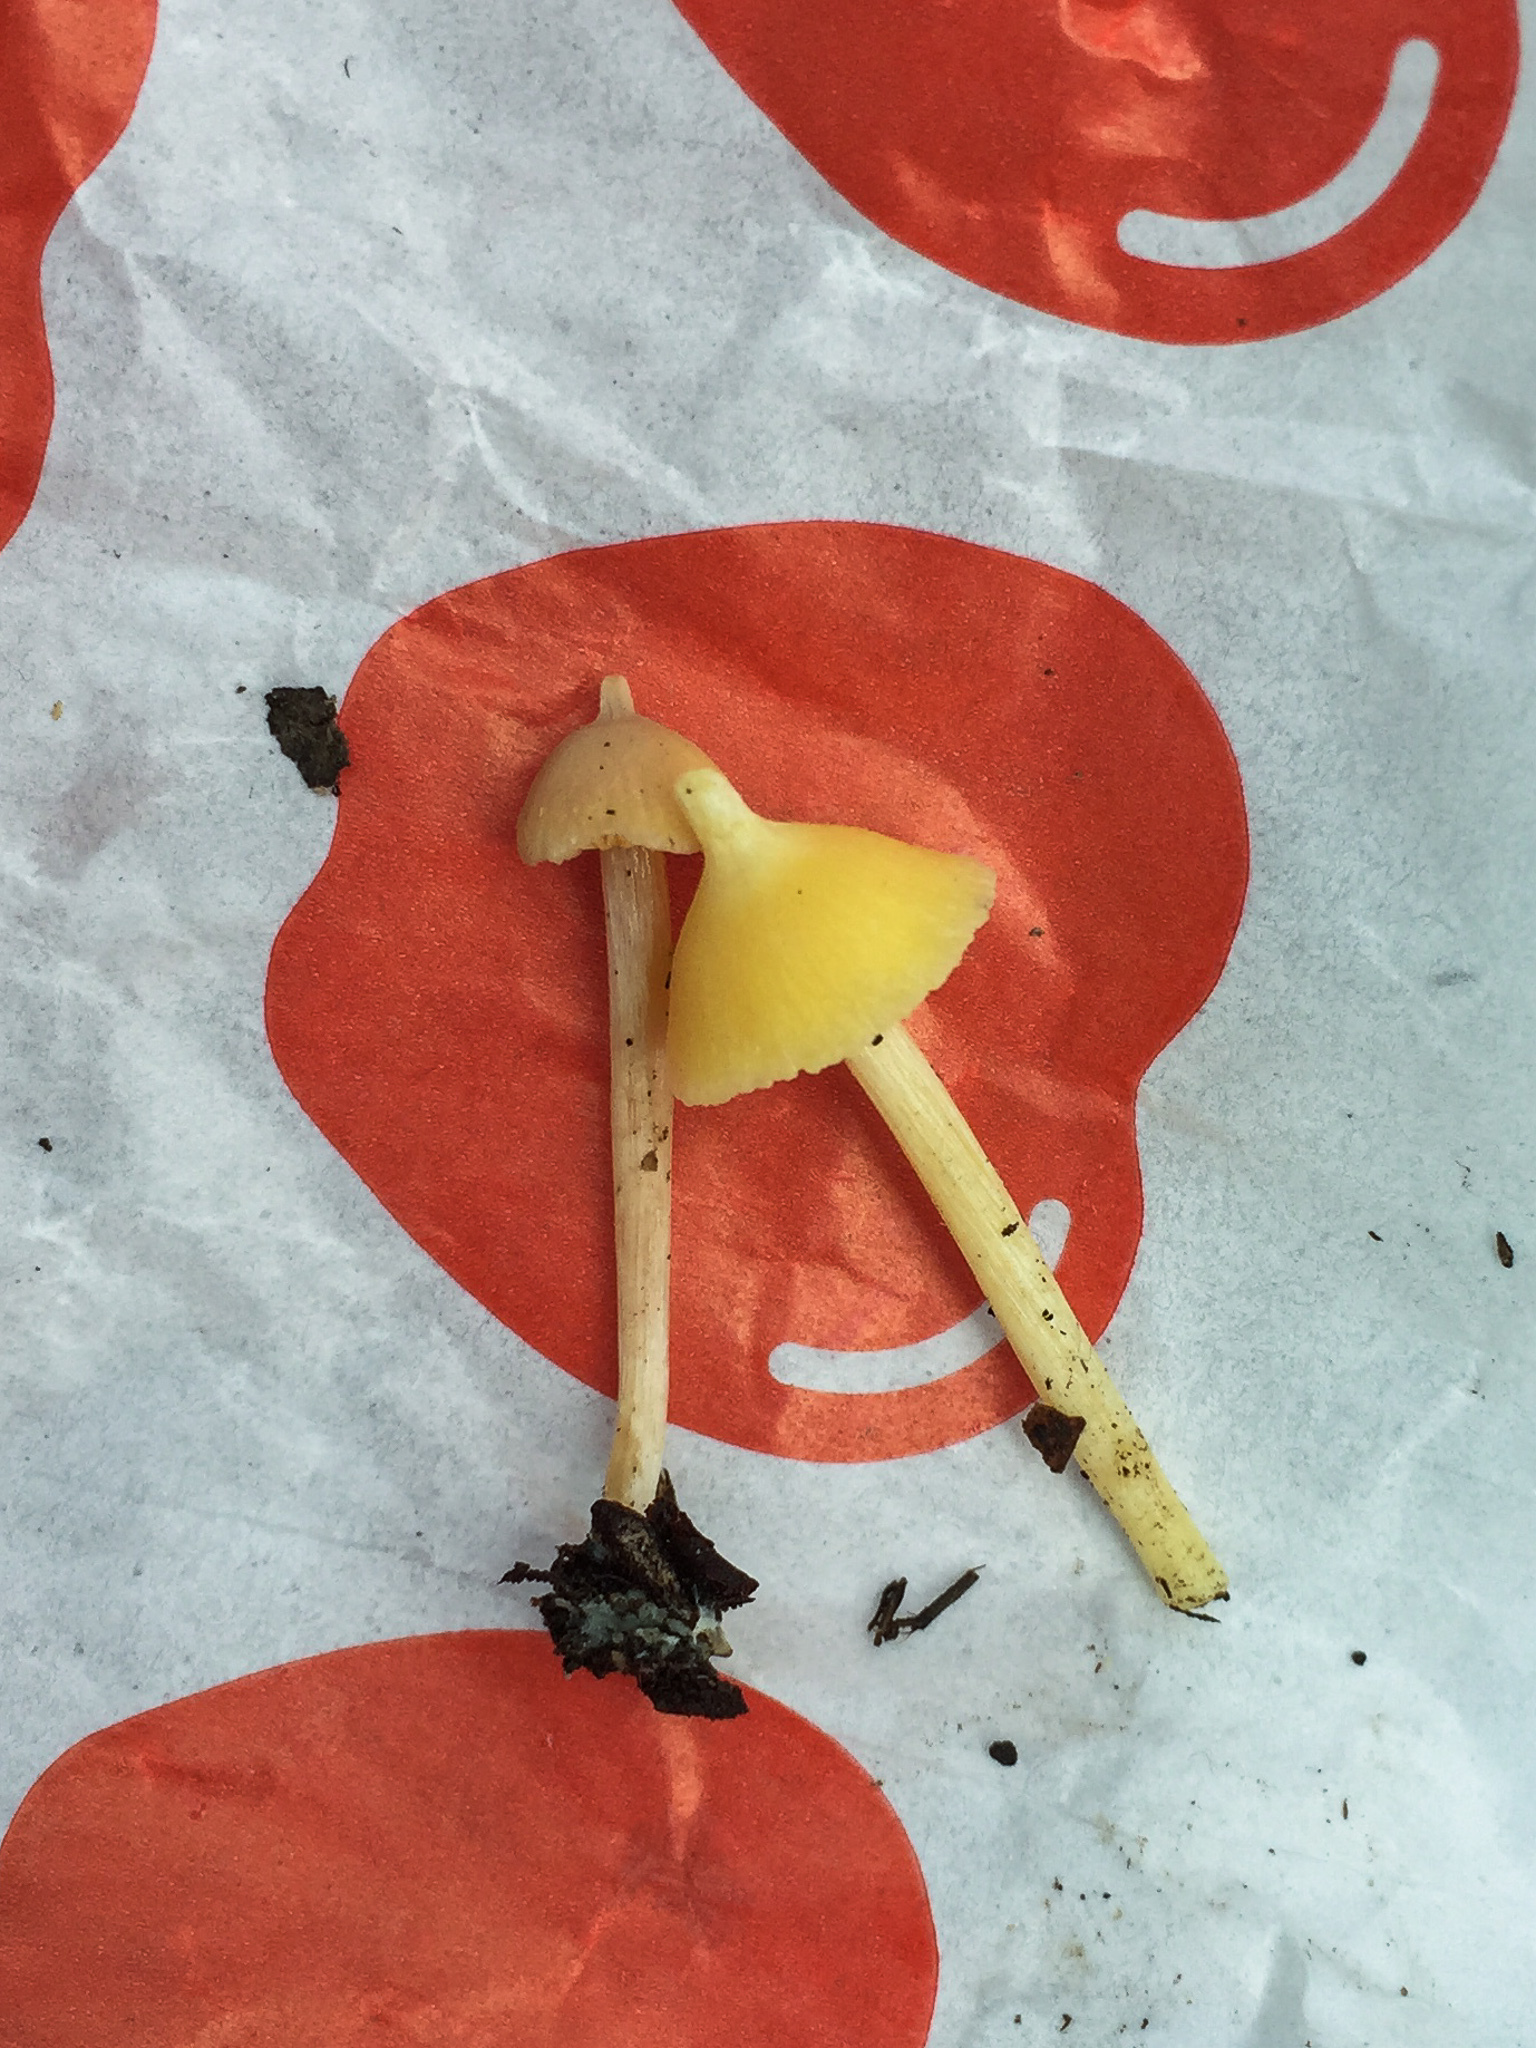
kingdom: Fungi
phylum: Basidiomycota
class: Agaricomycetes
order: Agaricales
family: Entolomataceae
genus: Entoloma
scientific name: Entoloma murrayi
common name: Yellow unicorn entoloma
